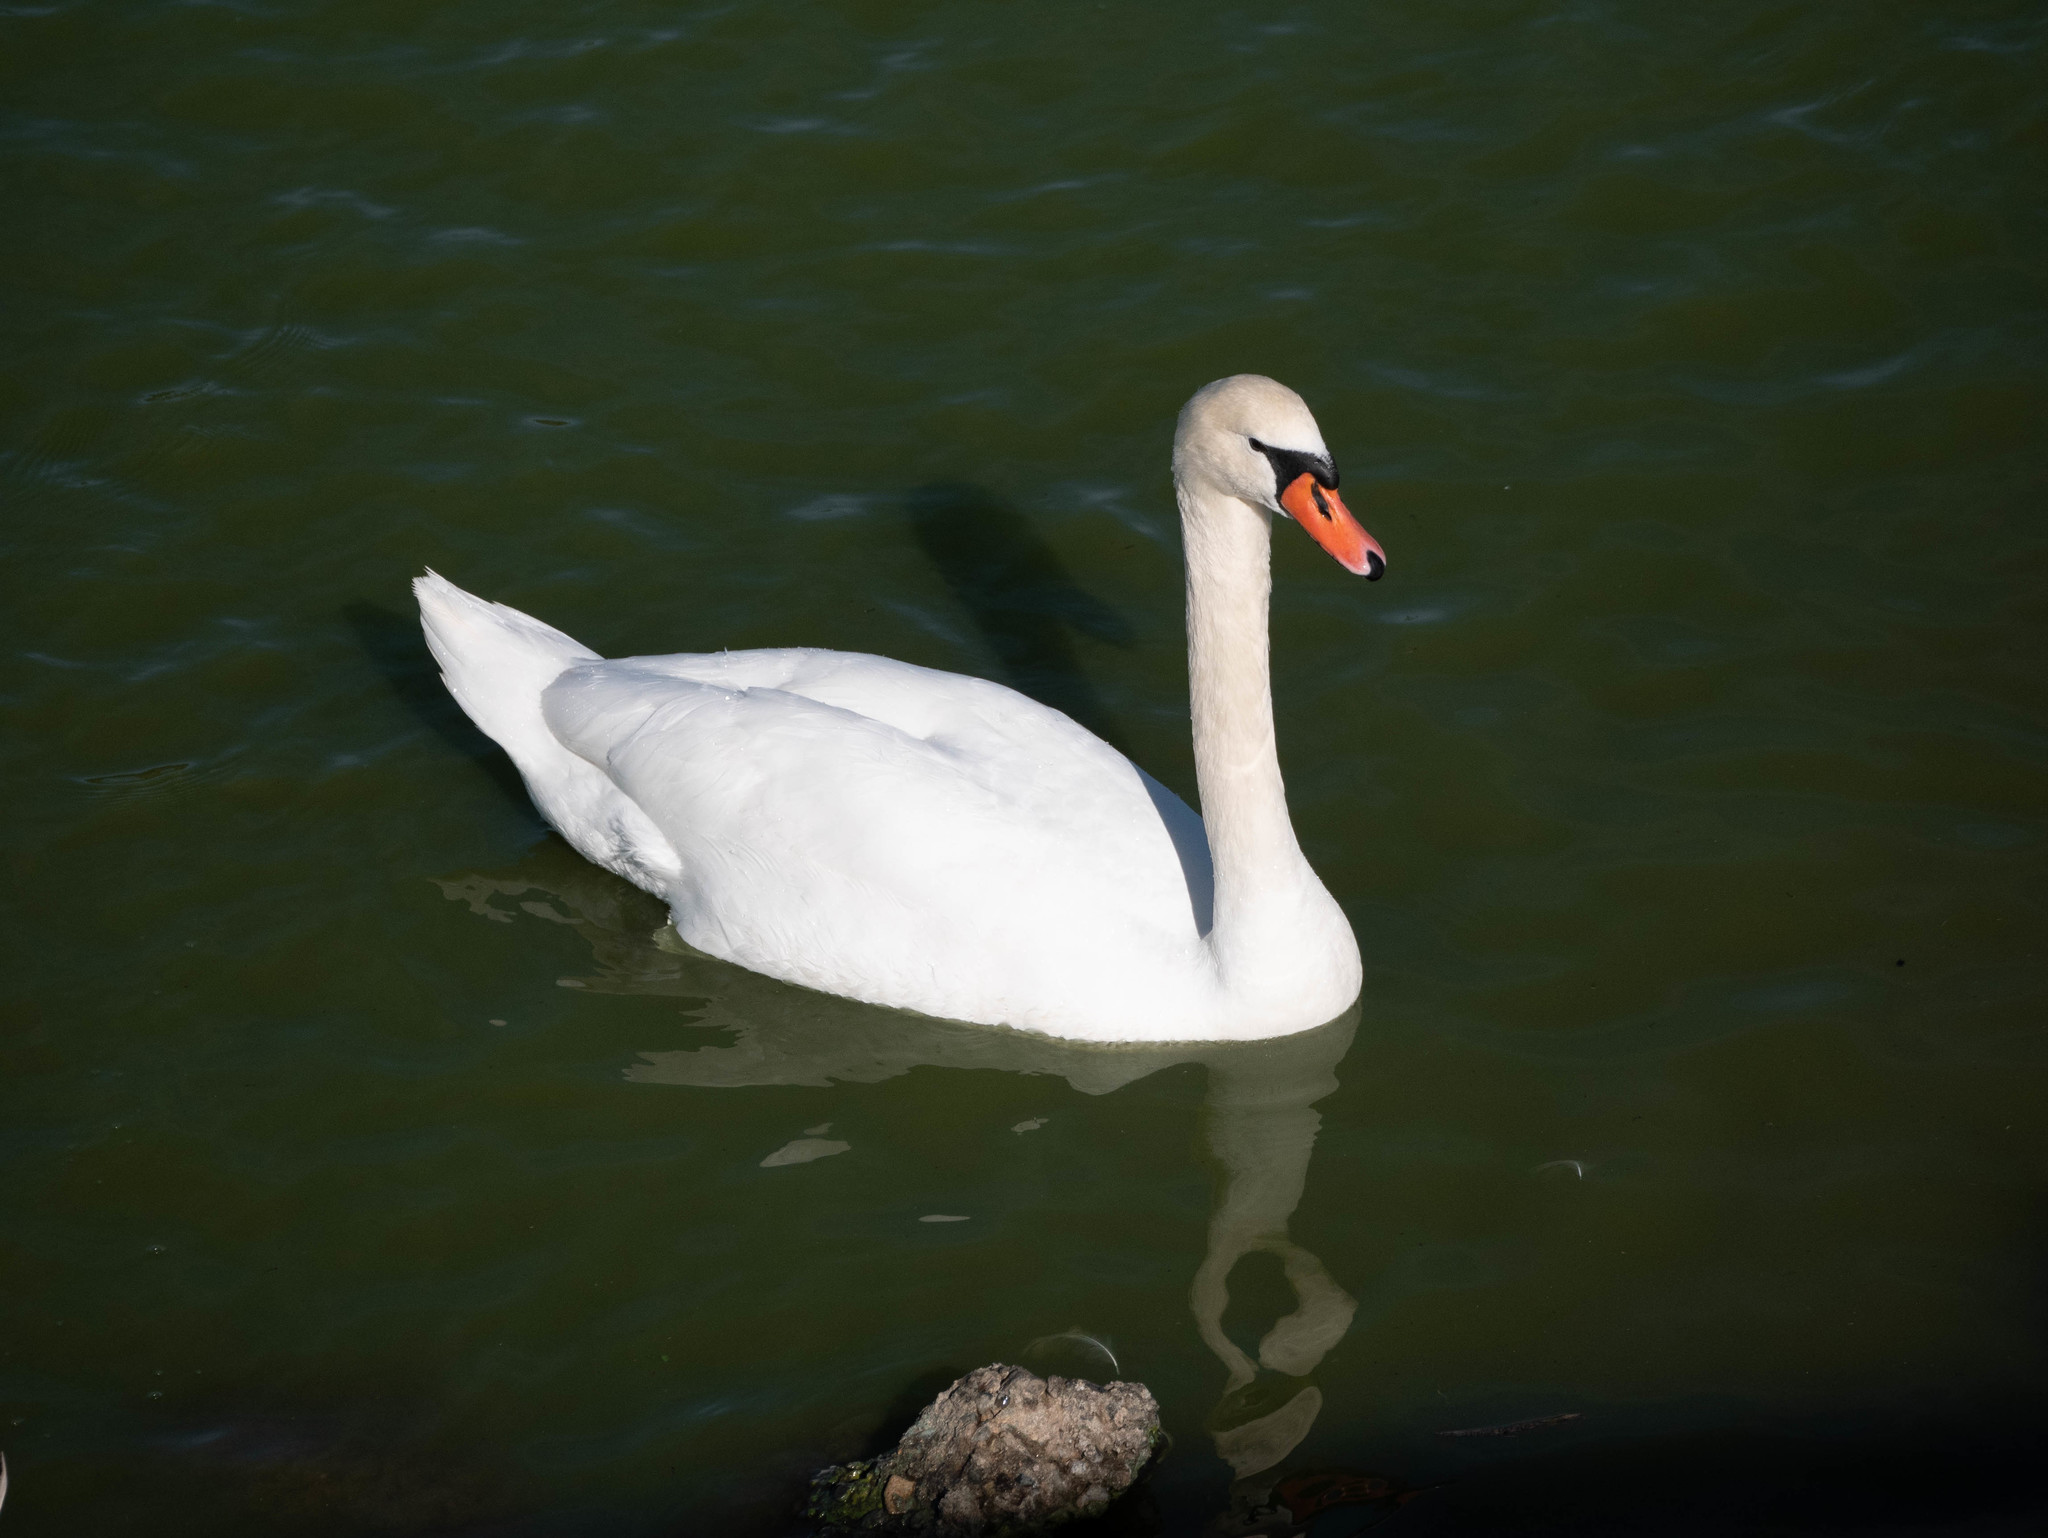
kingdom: Animalia
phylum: Chordata
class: Aves
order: Anseriformes
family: Anatidae
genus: Cygnus
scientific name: Cygnus olor
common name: Mute swan
